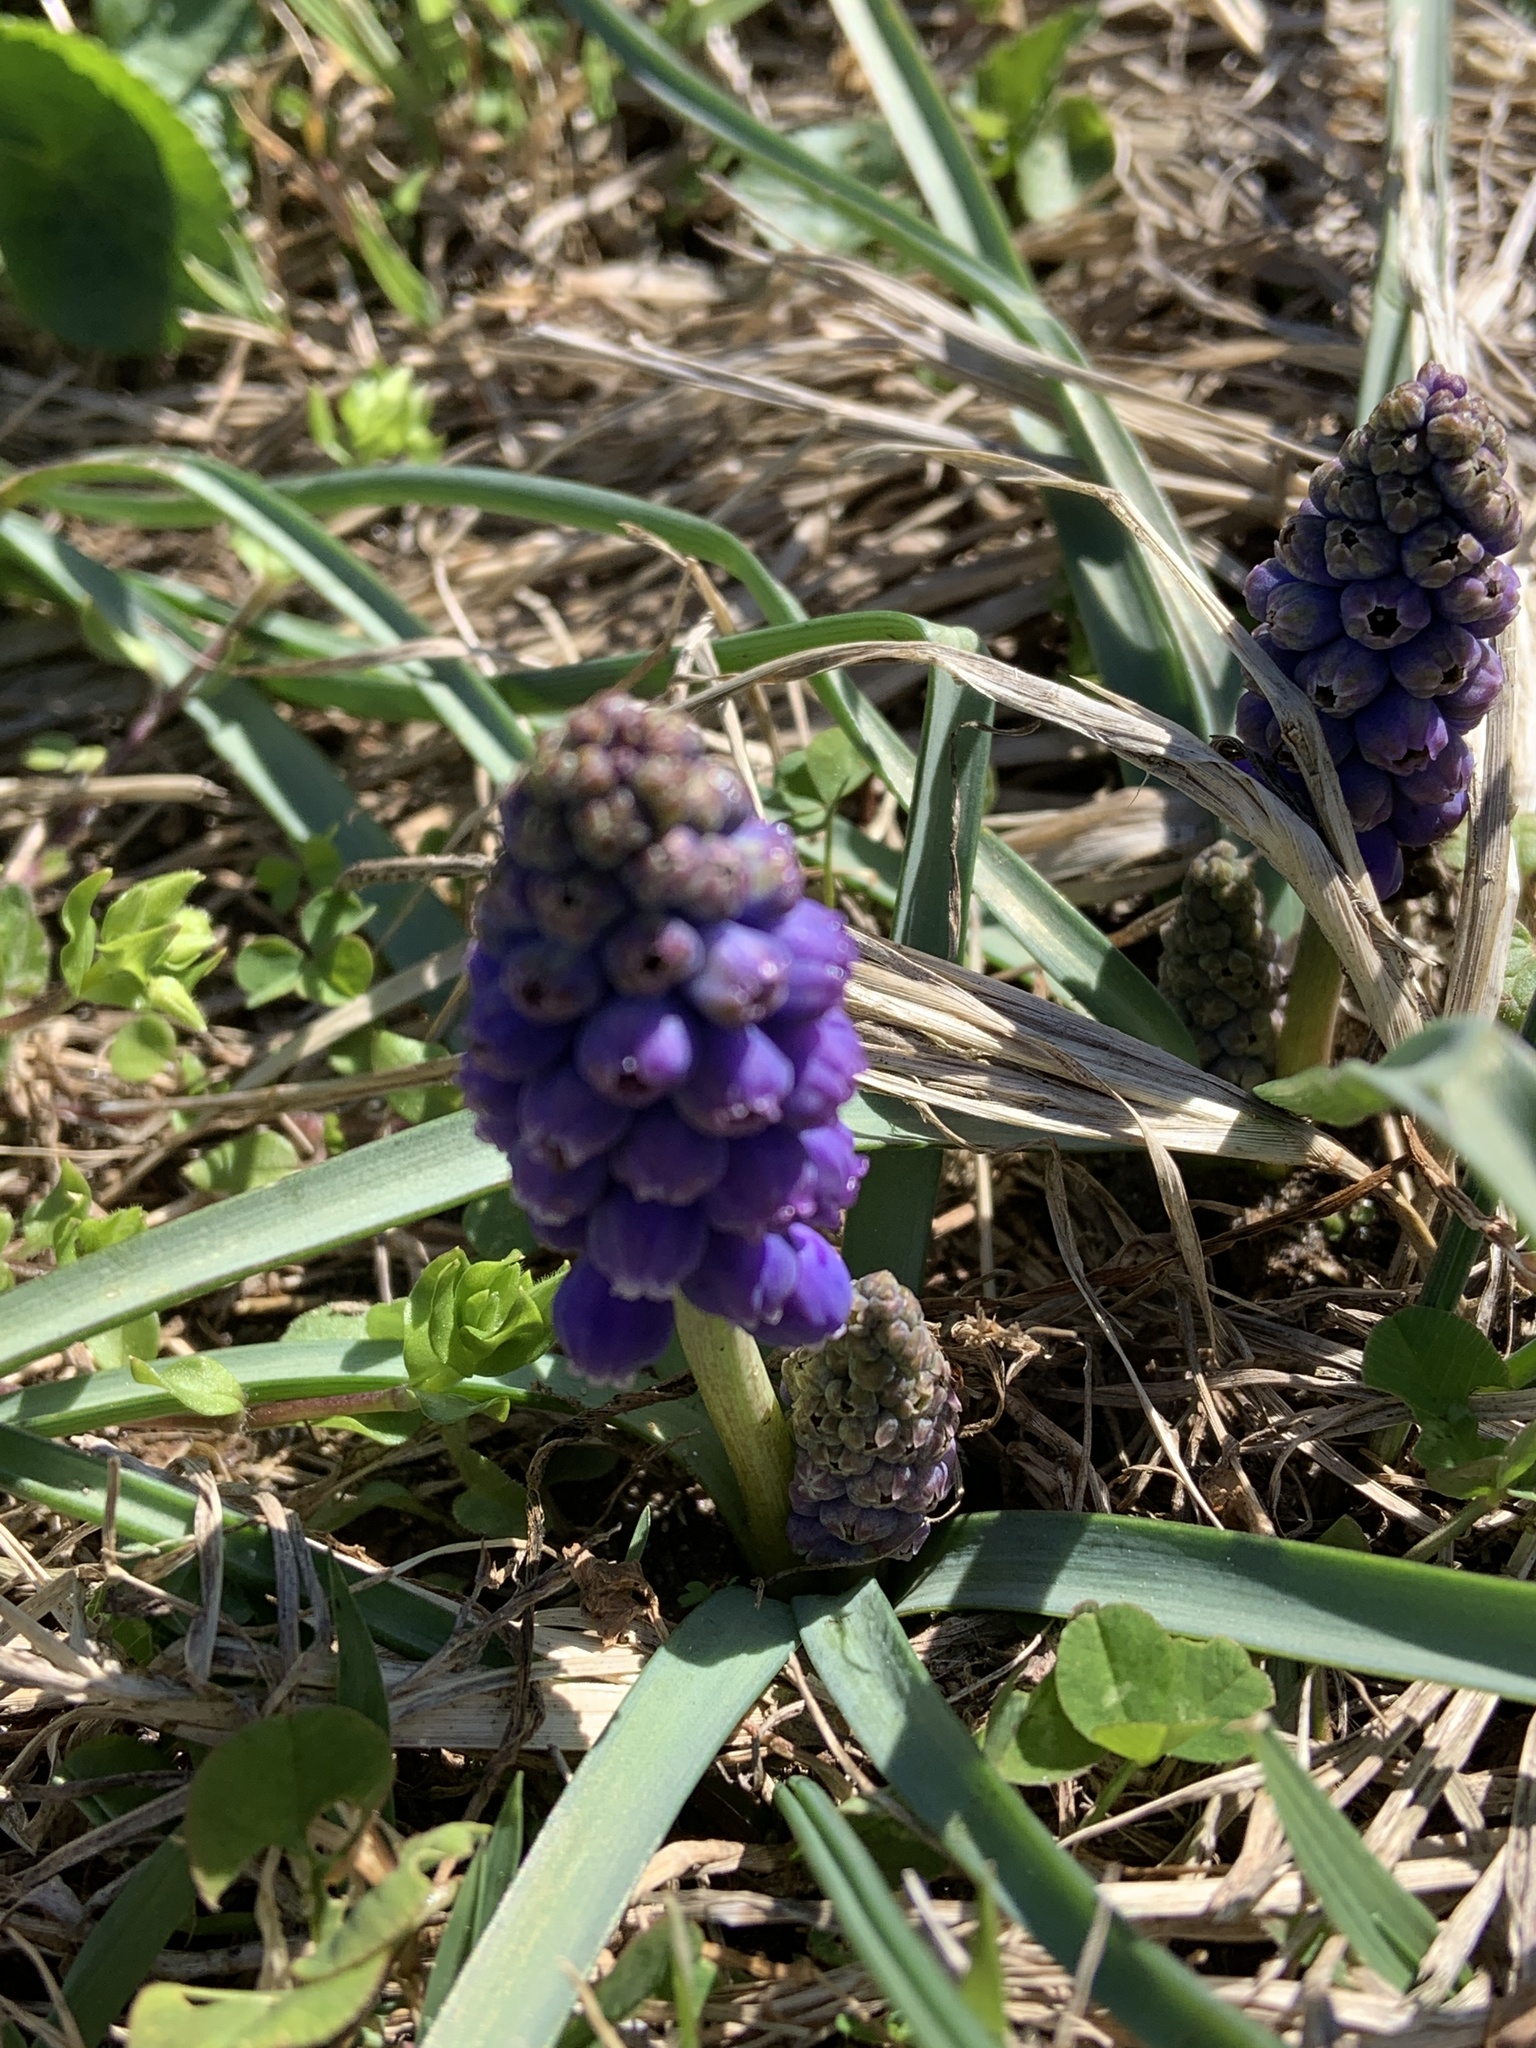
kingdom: Plantae
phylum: Tracheophyta
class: Liliopsida
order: Asparagales
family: Asparagaceae
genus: Muscari
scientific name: Muscari neglectum
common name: Grape-hyacinth
